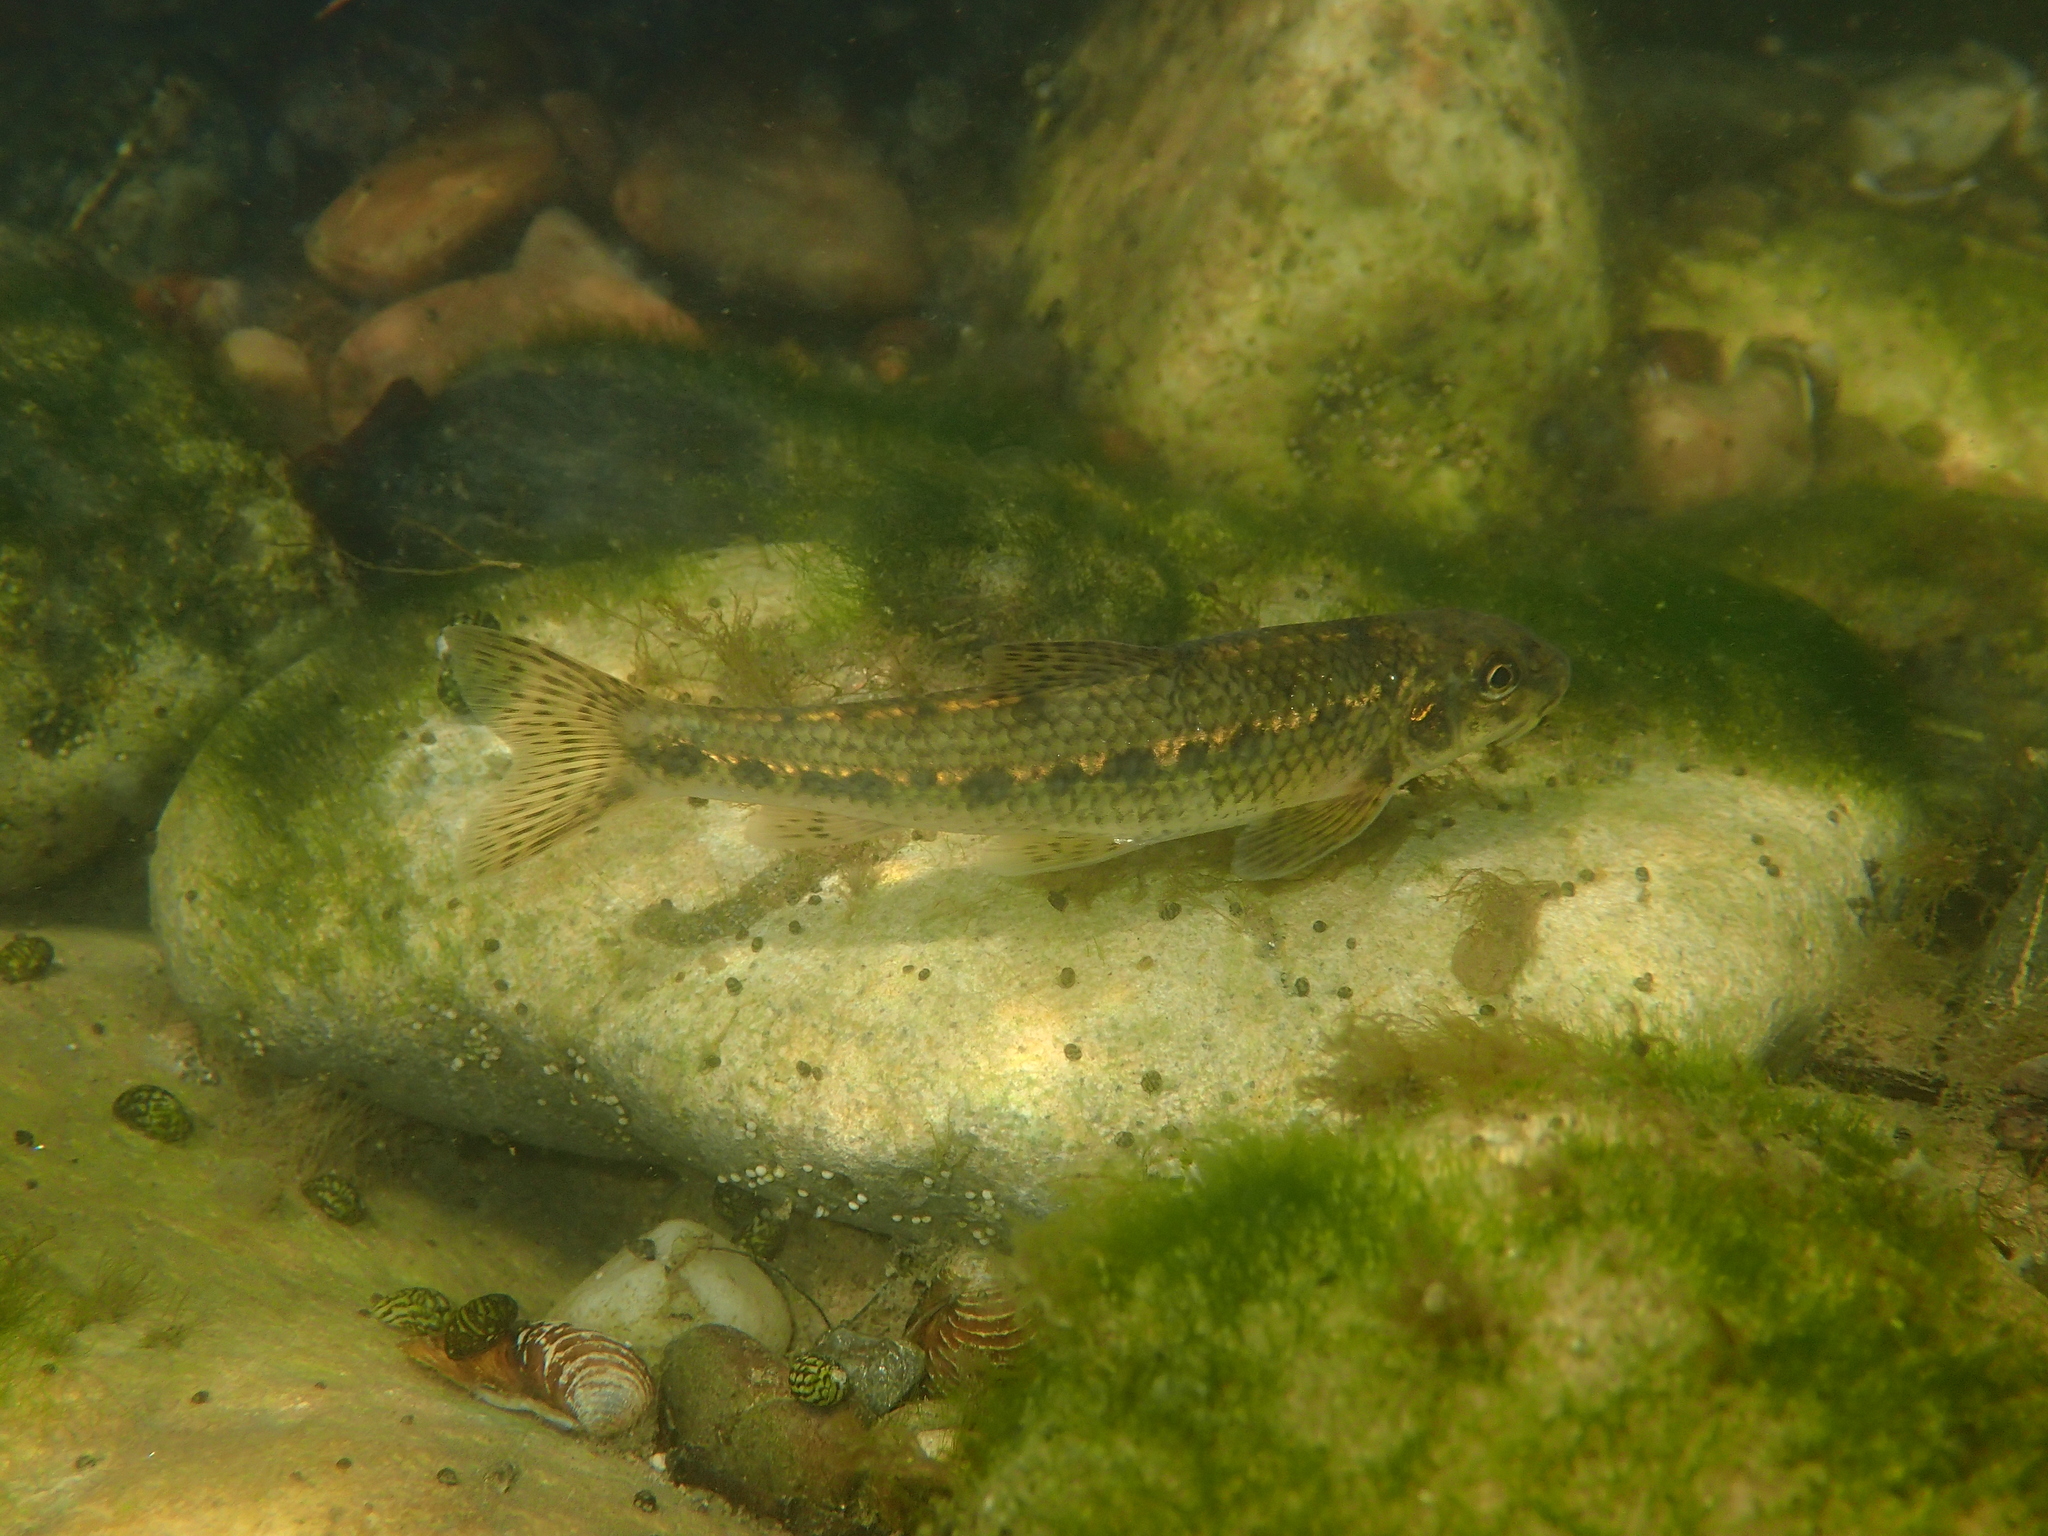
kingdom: Animalia
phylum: Chordata
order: Cypriniformes
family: Cyprinidae
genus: Gobio
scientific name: Gobio occitaniae
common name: Languedoc gudgeon
